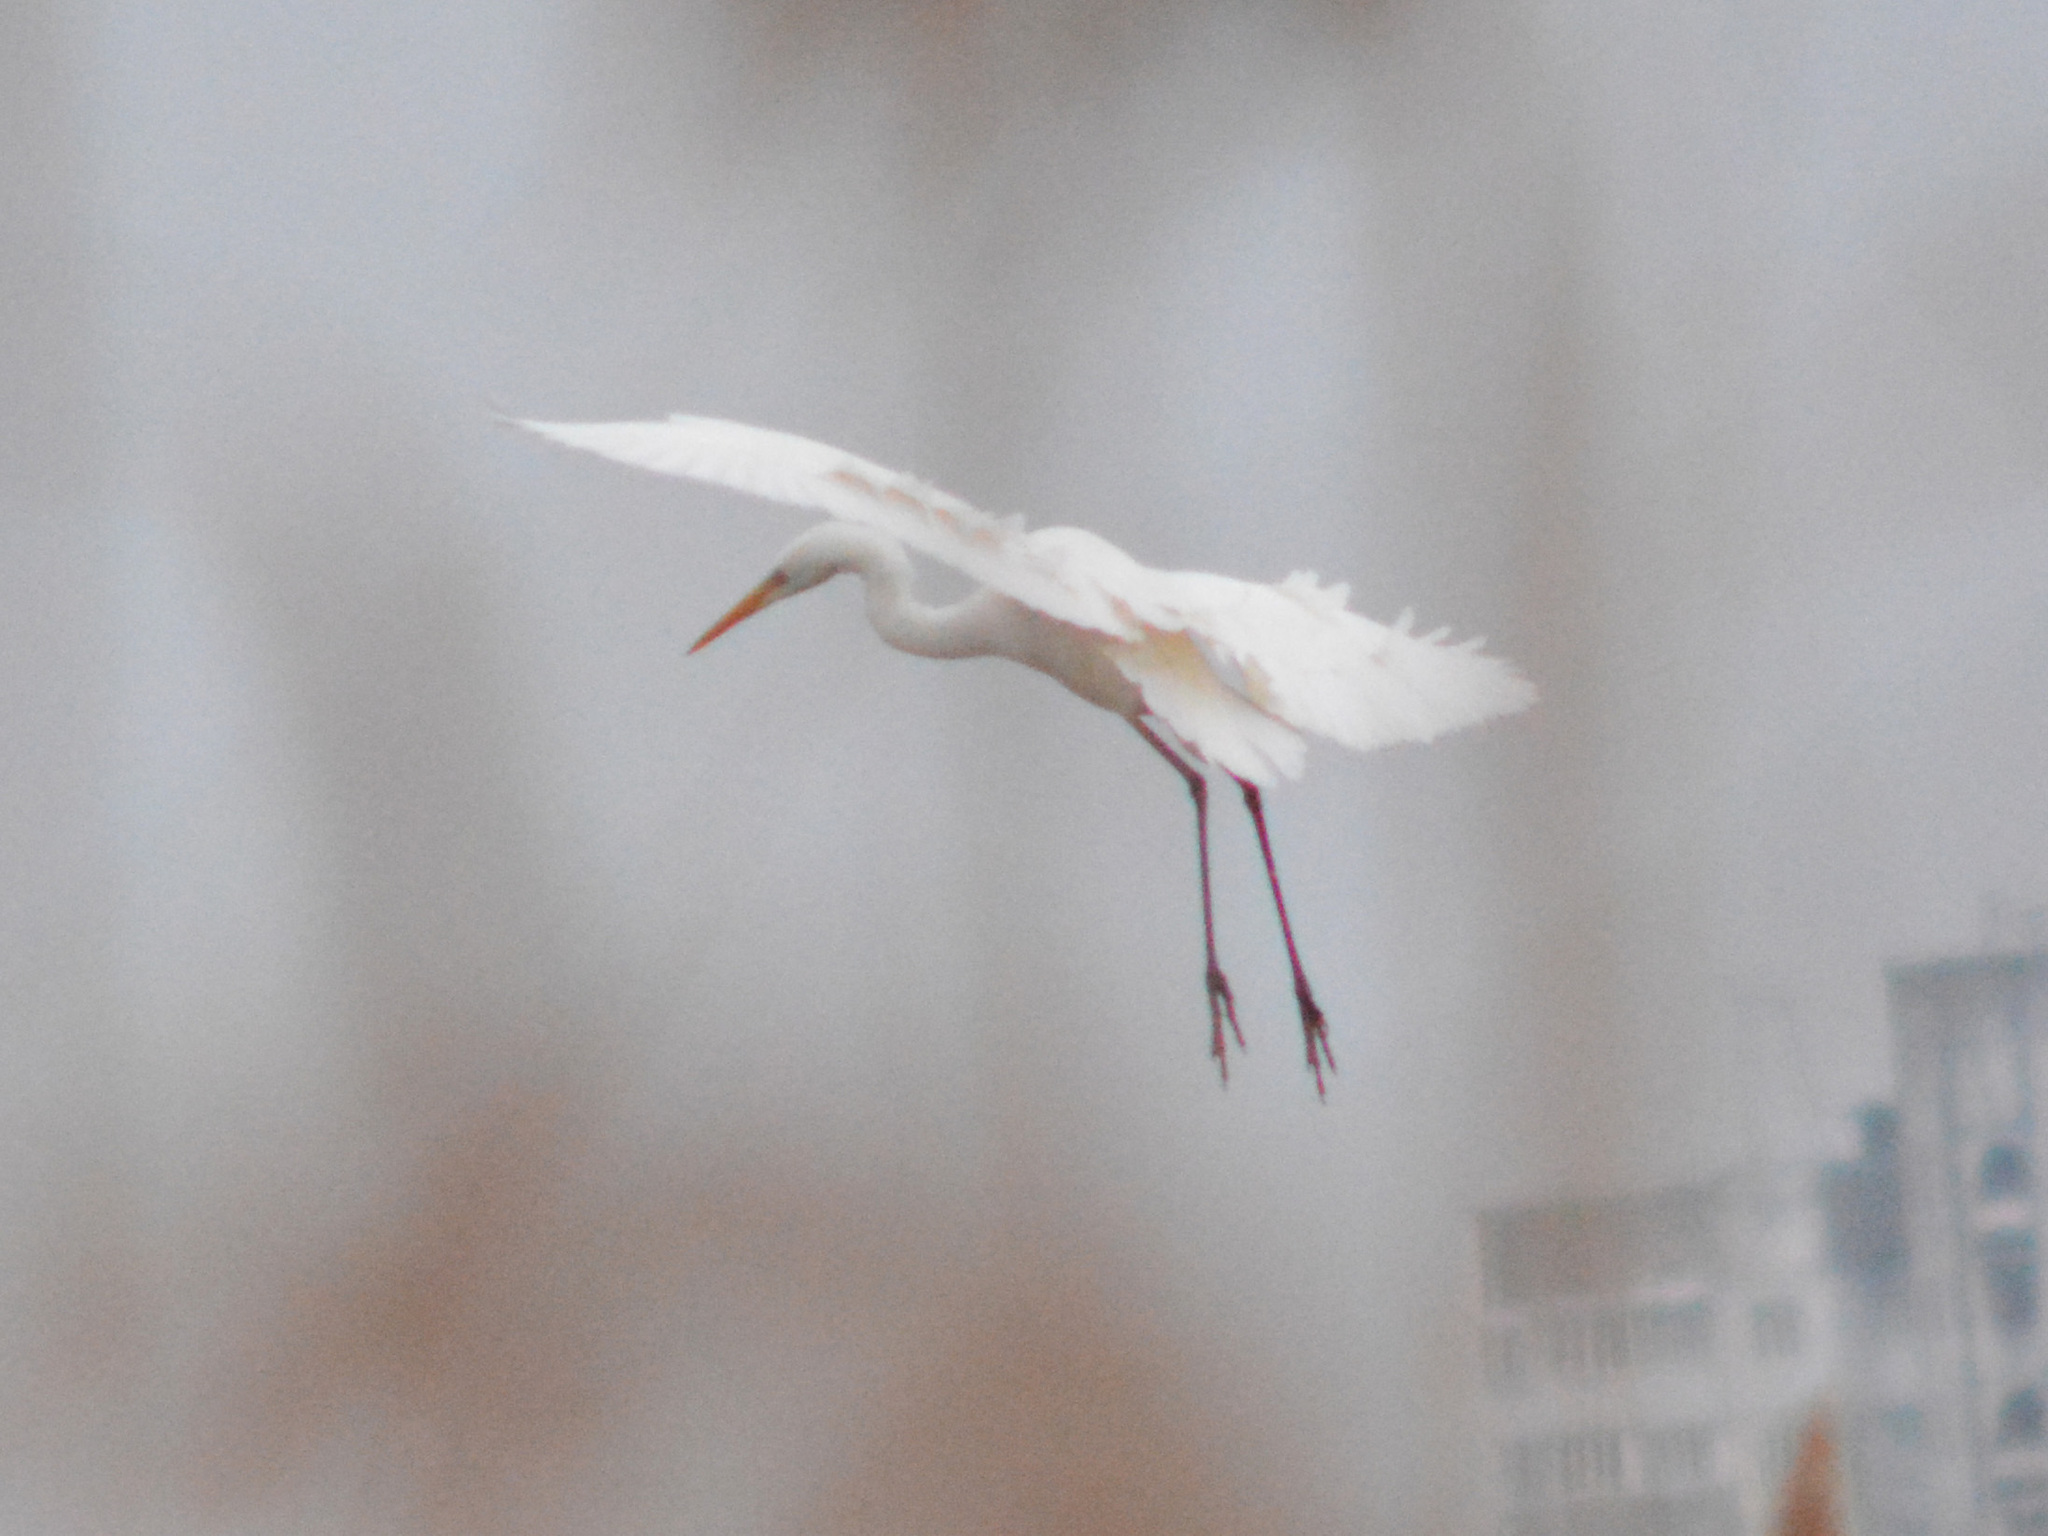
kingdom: Animalia
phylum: Chordata
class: Aves
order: Pelecaniformes
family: Ardeidae
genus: Ardea
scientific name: Ardea alba
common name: Great egret
